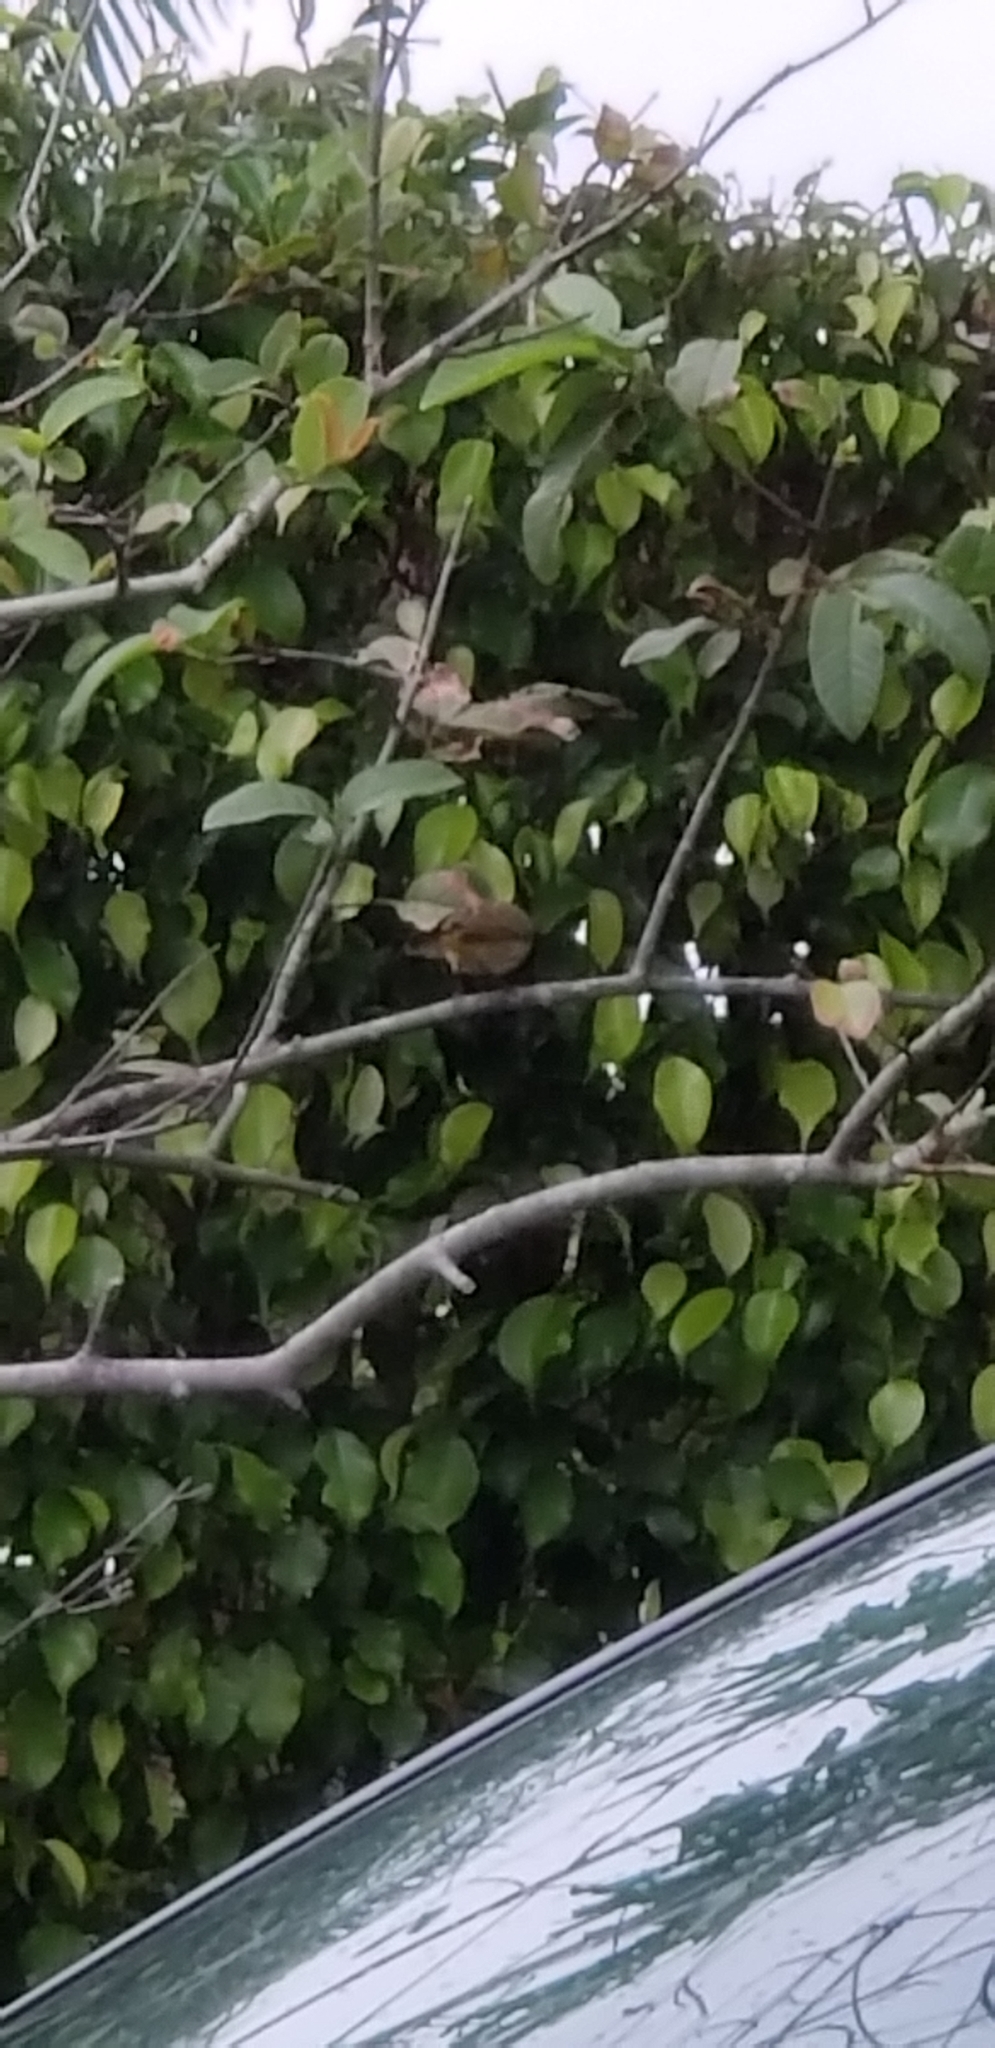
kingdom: Animalia
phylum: Chordata
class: Aves
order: Passeriformes
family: Parulidae
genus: Setophaga
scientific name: Setophaga palmarum
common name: Palm warbler
